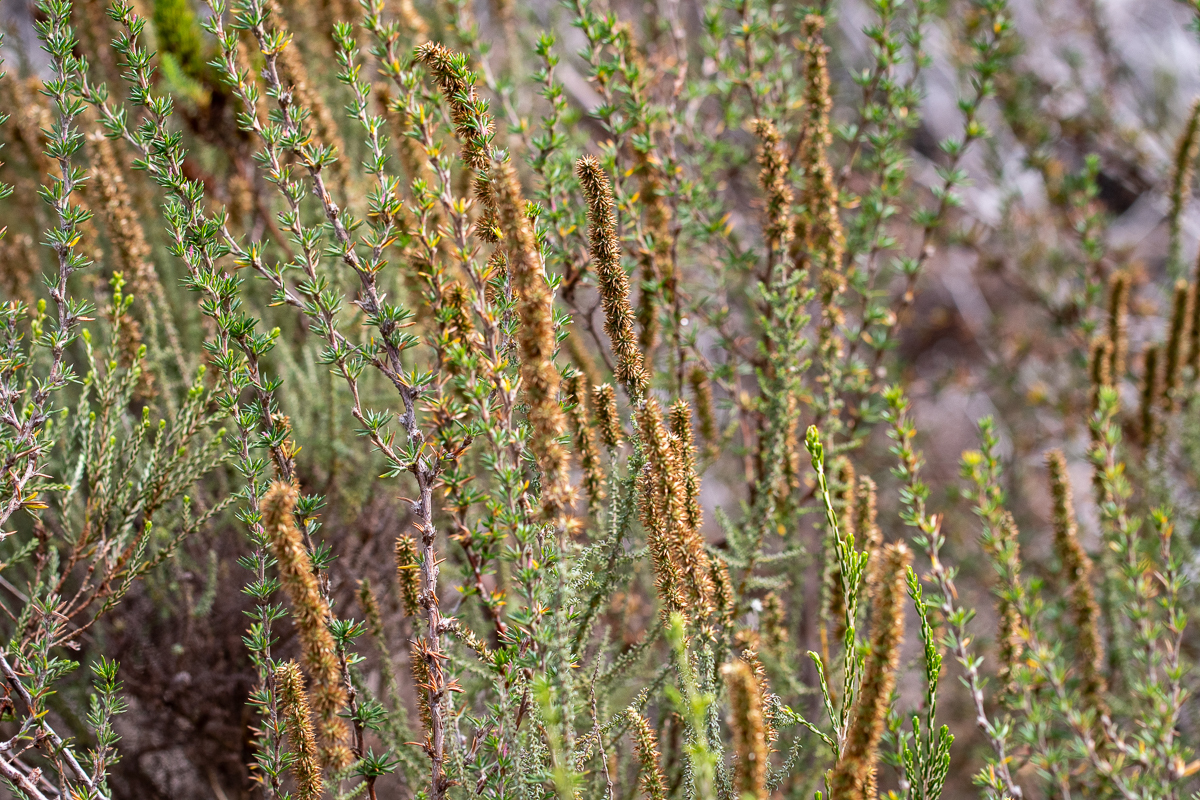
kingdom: Plantae
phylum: Tracheophyta
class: Magnoliopsida
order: Asterales
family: Asteraceae
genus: Seriphium
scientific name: Seriphium cinereum
